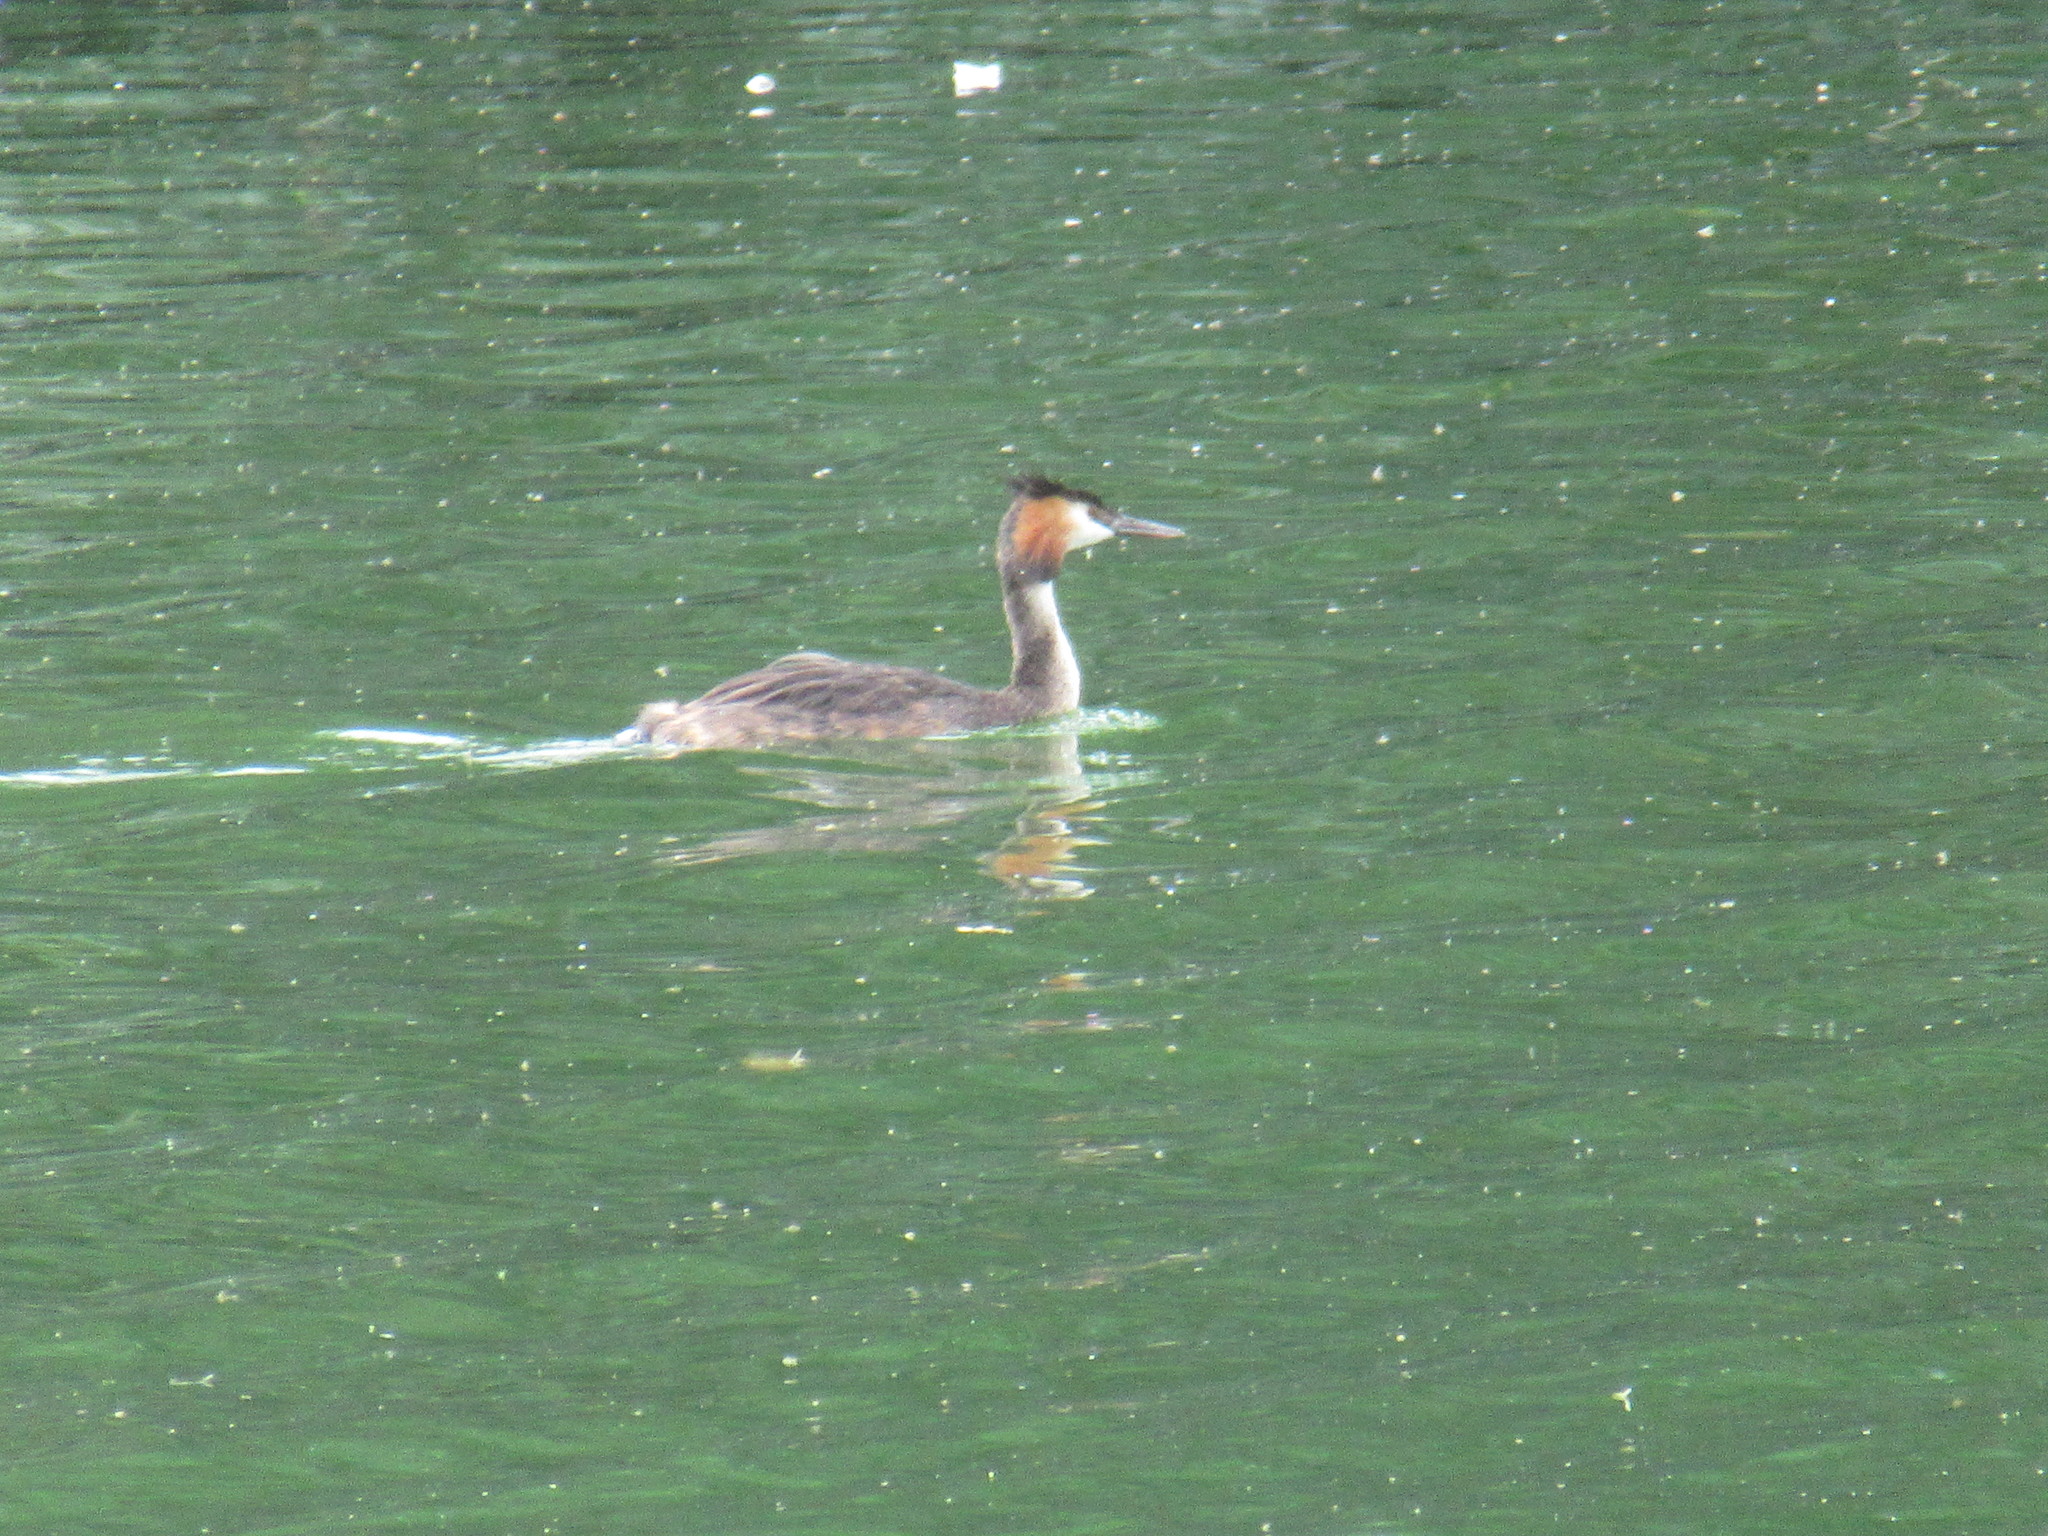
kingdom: Animalia
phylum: Chordata
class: Aves
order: Podicipediformes
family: Podicipedidae
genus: Podiceps
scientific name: Podiceps cristatus
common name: Great crested grebe
